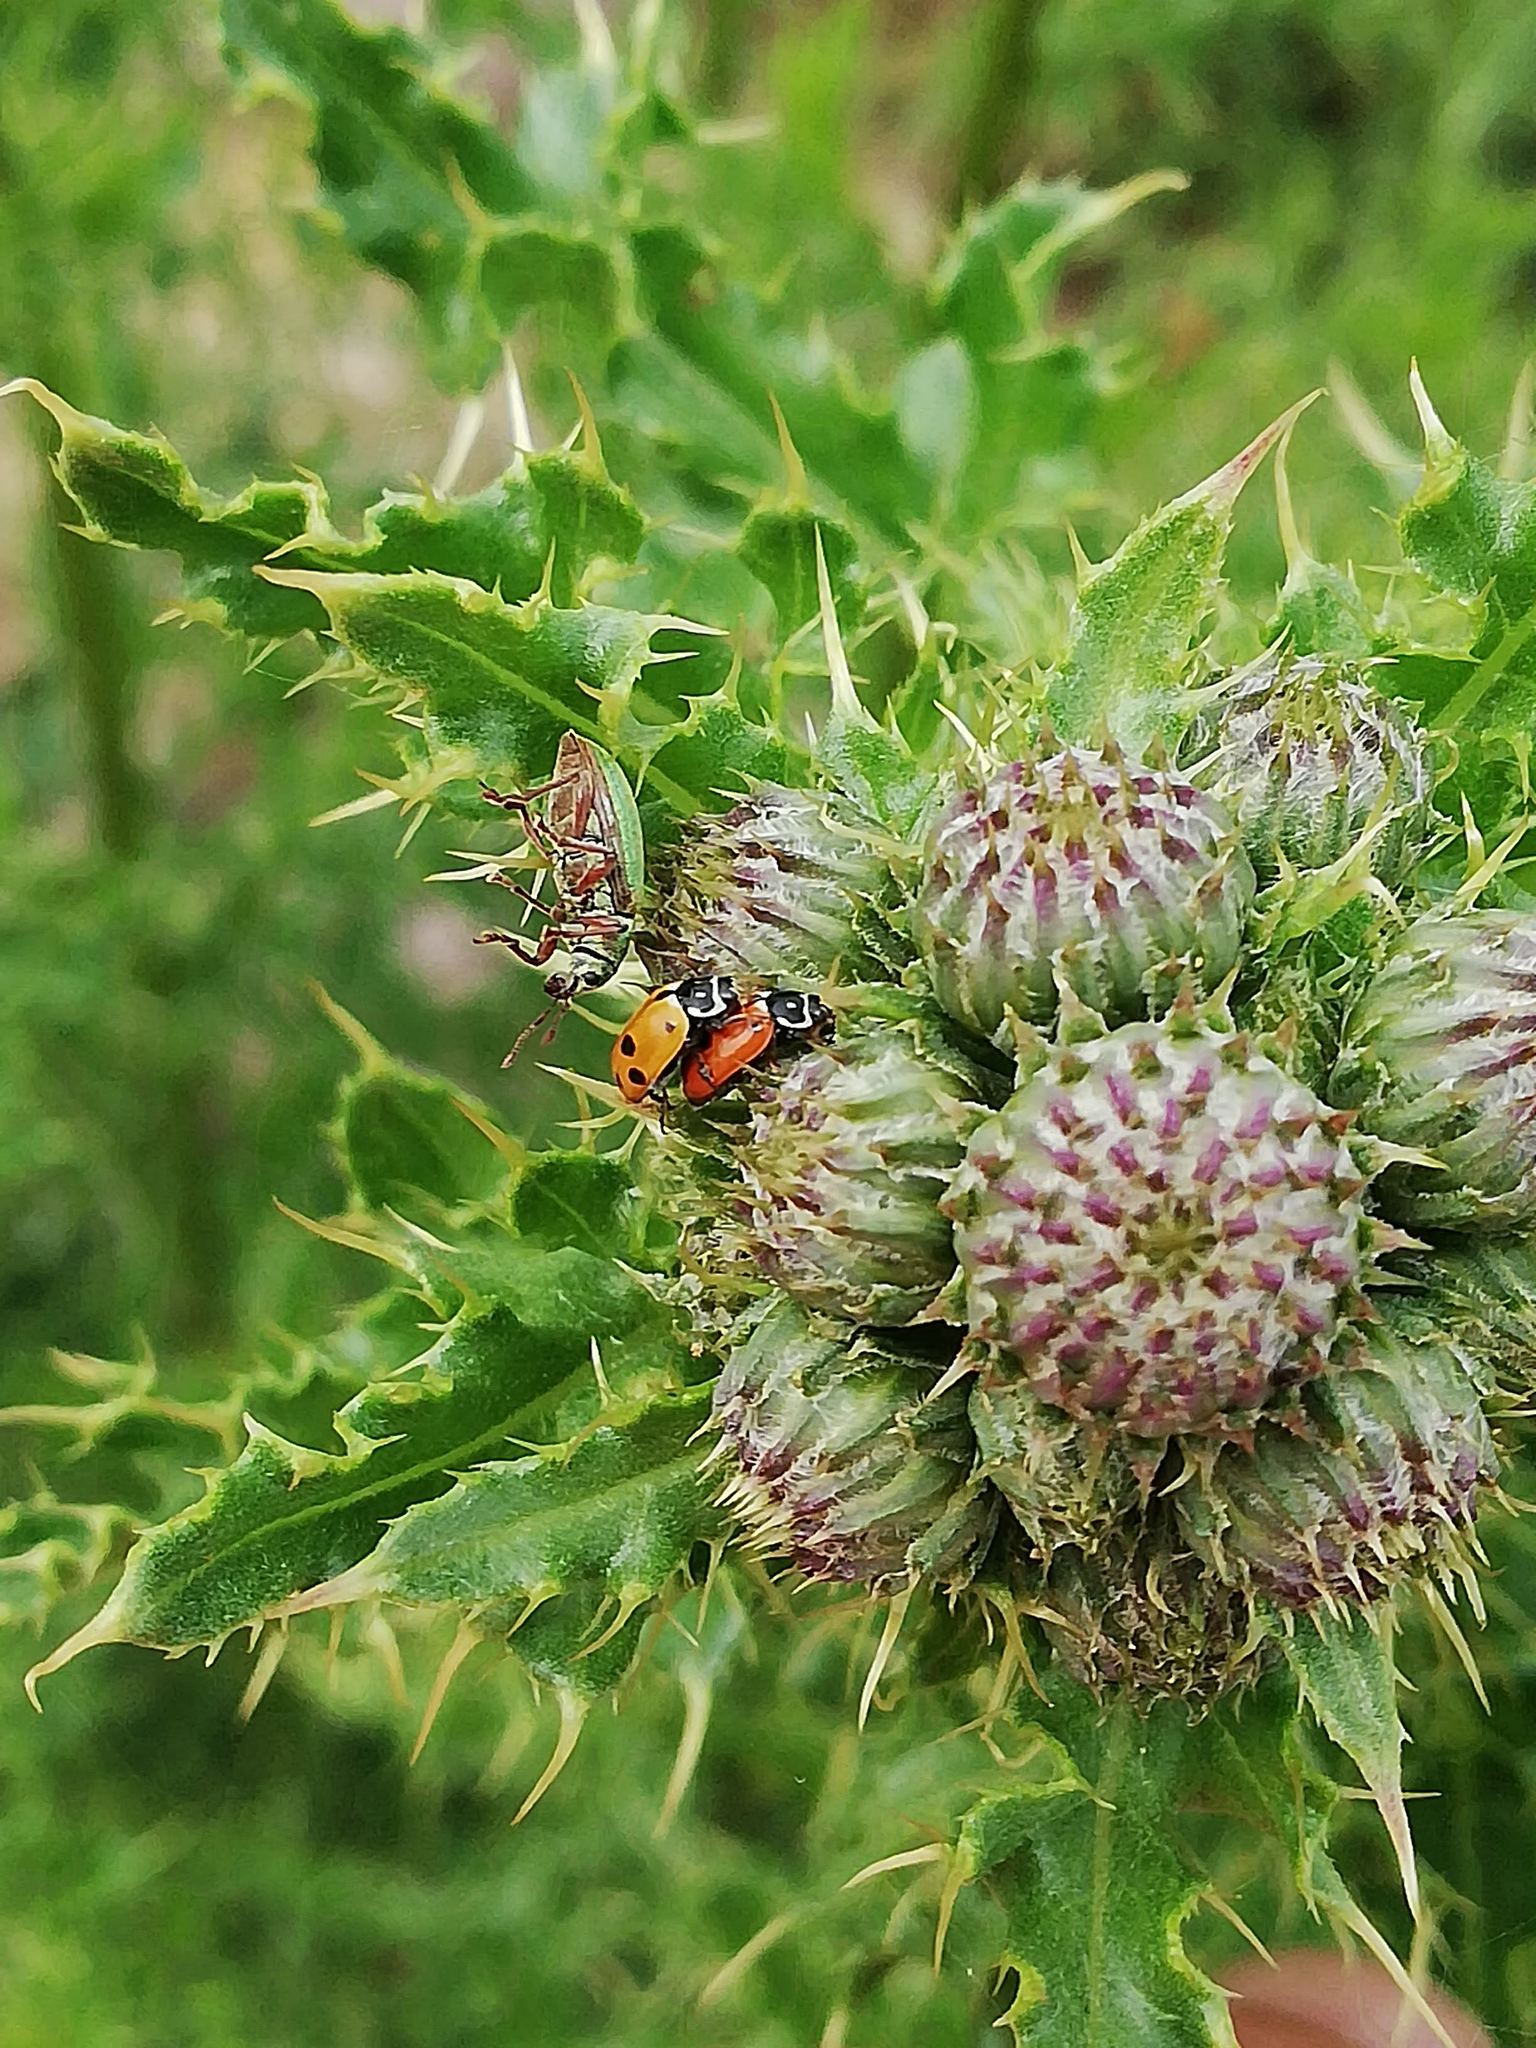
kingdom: Animalia
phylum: Arthropoda
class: Insecta
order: Coleoptera
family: Coccinellidae
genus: Hippodamia
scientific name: Hippodamia variegata
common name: Ladybird beetle
